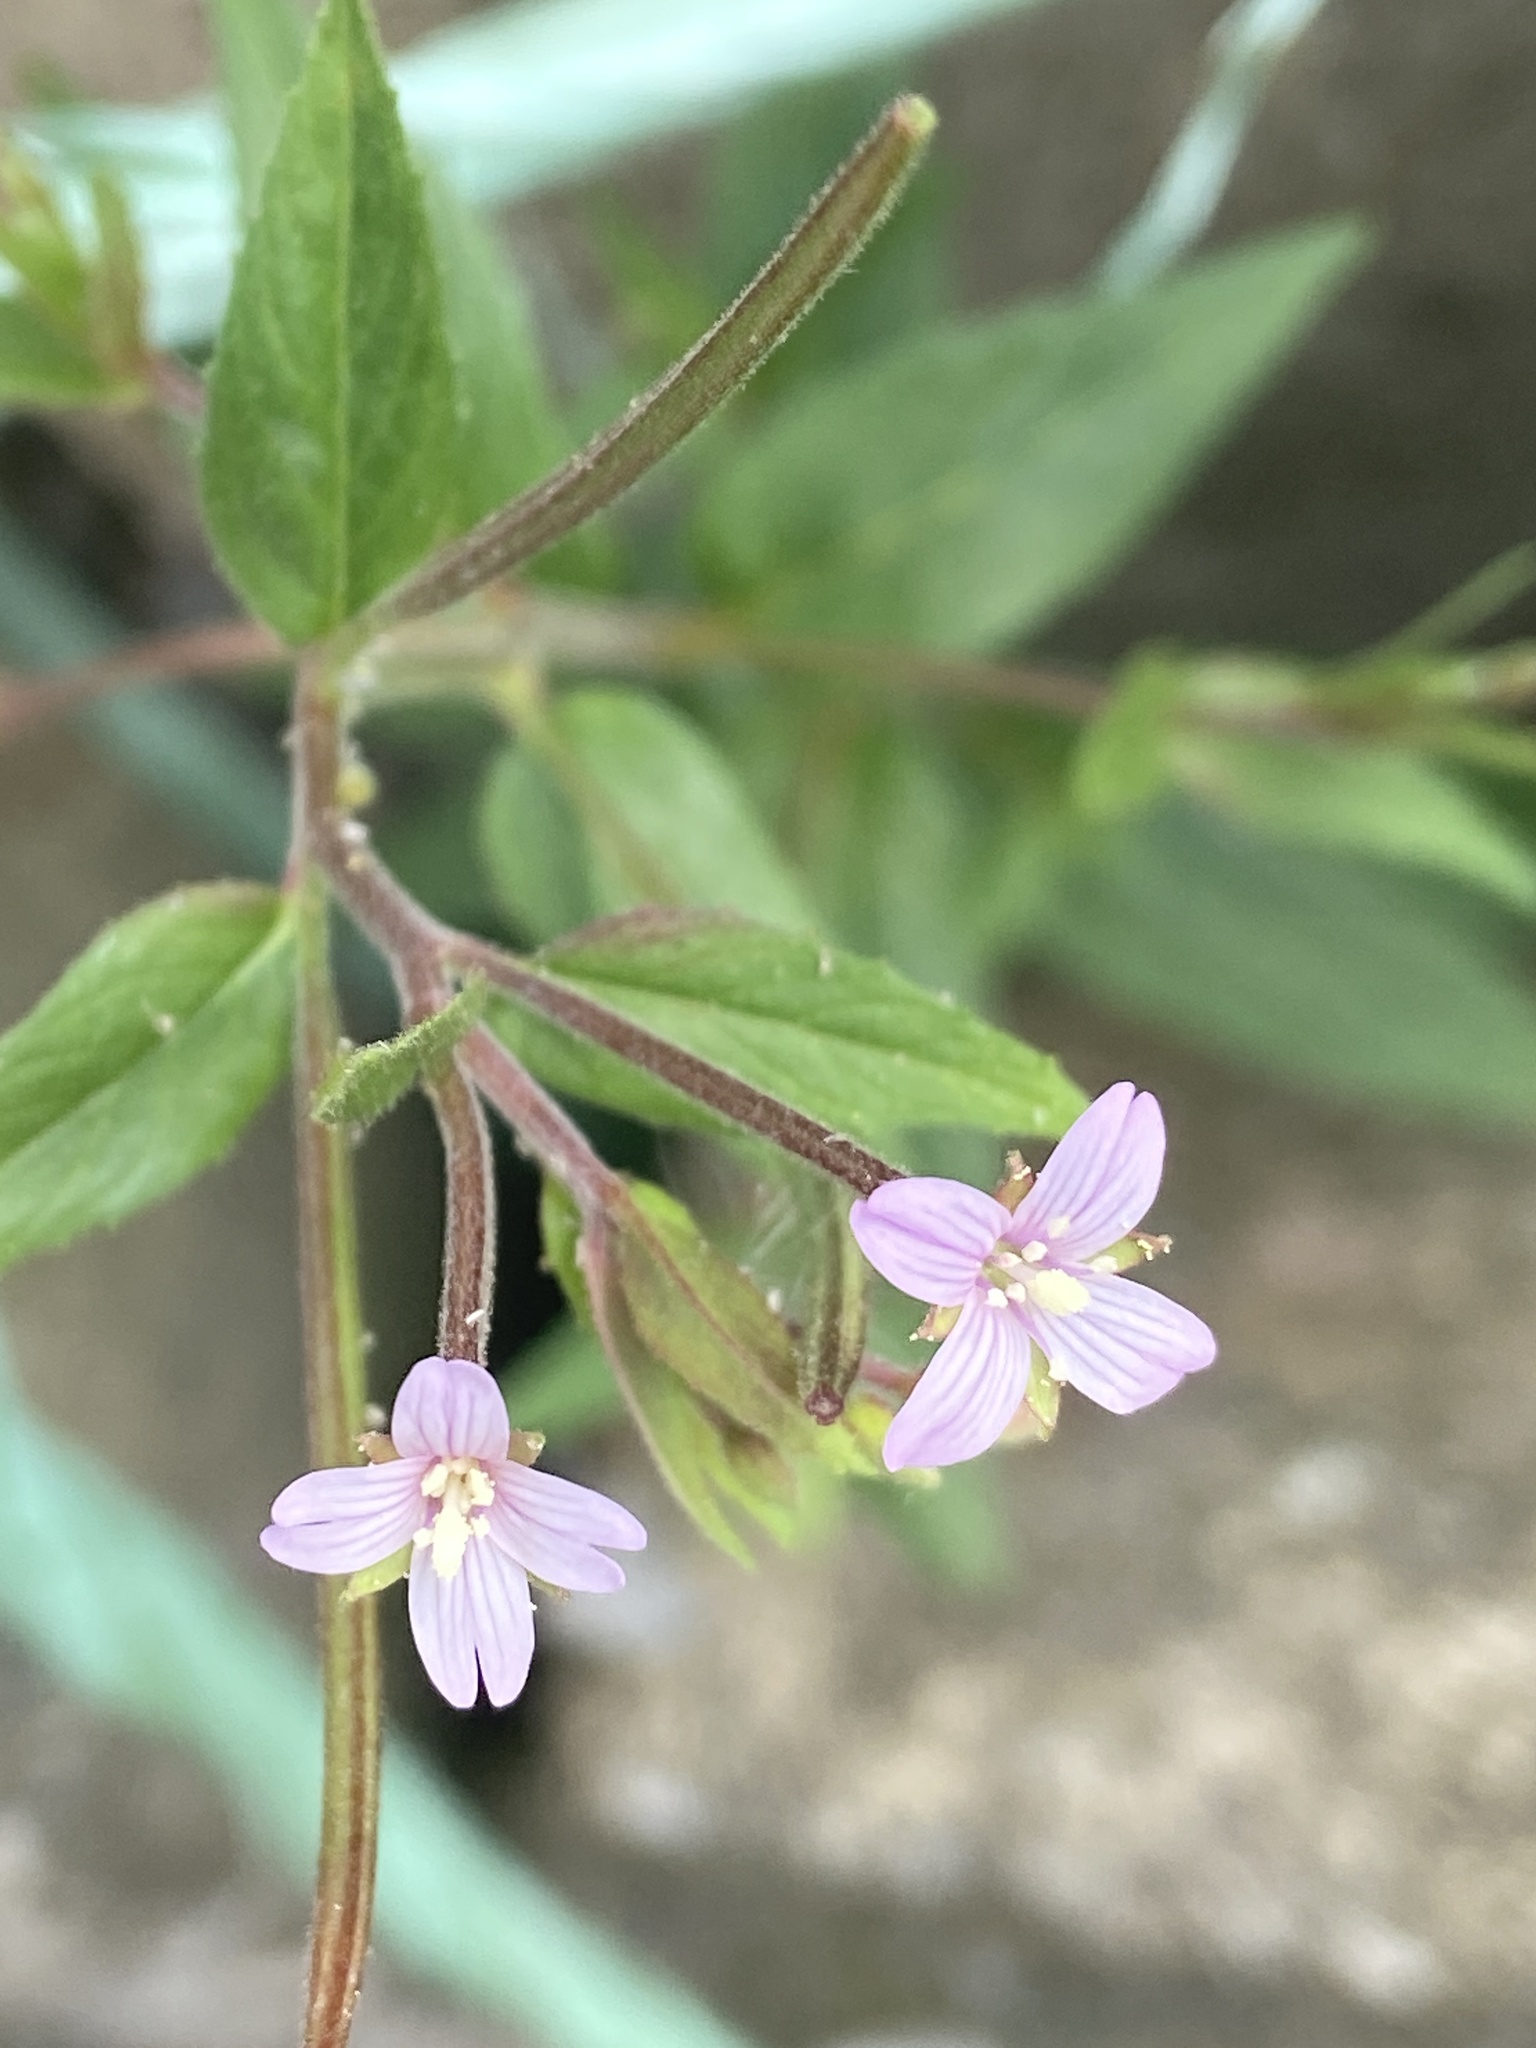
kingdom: Plantae
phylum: Tracheophyta
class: Magnoliopsida
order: Myrtales
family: Onagraceae
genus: Epilobium
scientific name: Epilobium ciliatum
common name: American willowherb
